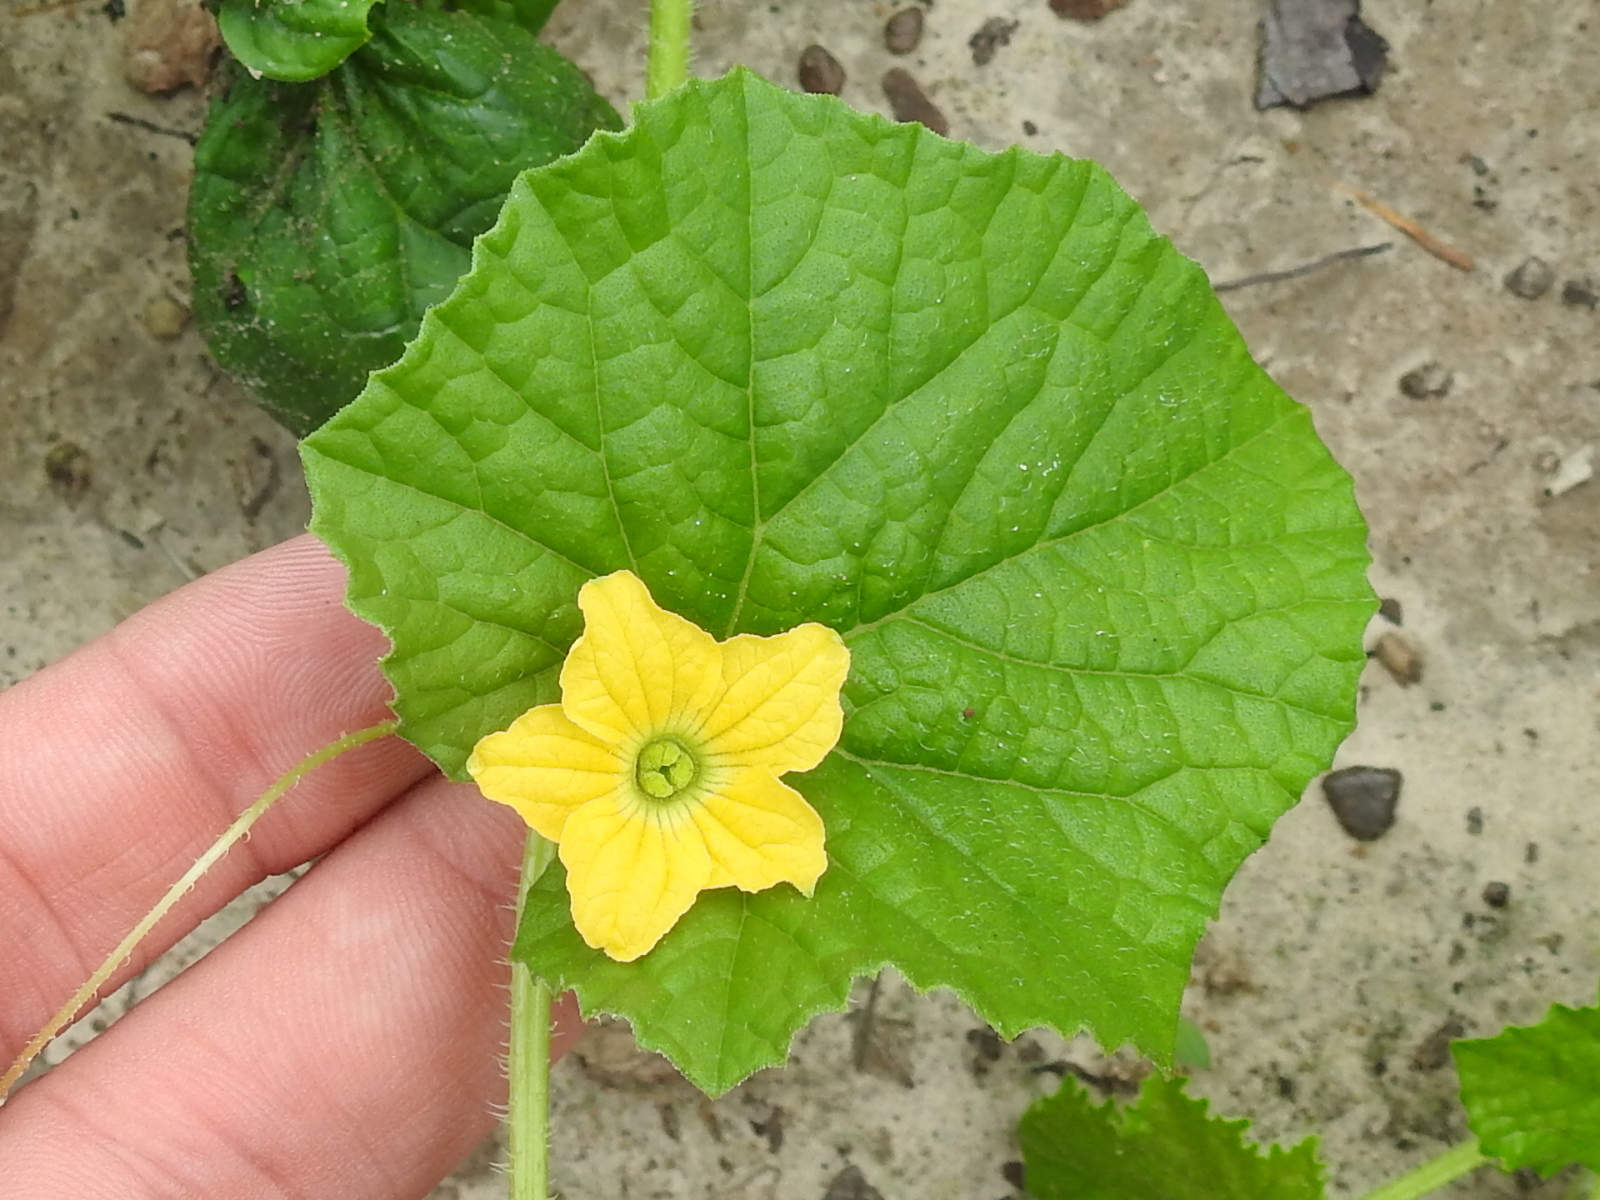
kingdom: Plantae
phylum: Tracheophyta
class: Magnoliopsida
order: Cucurbitales
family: Cucurbitaceae
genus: Cucumis
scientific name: Cucumis sativus
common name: Cucumber
